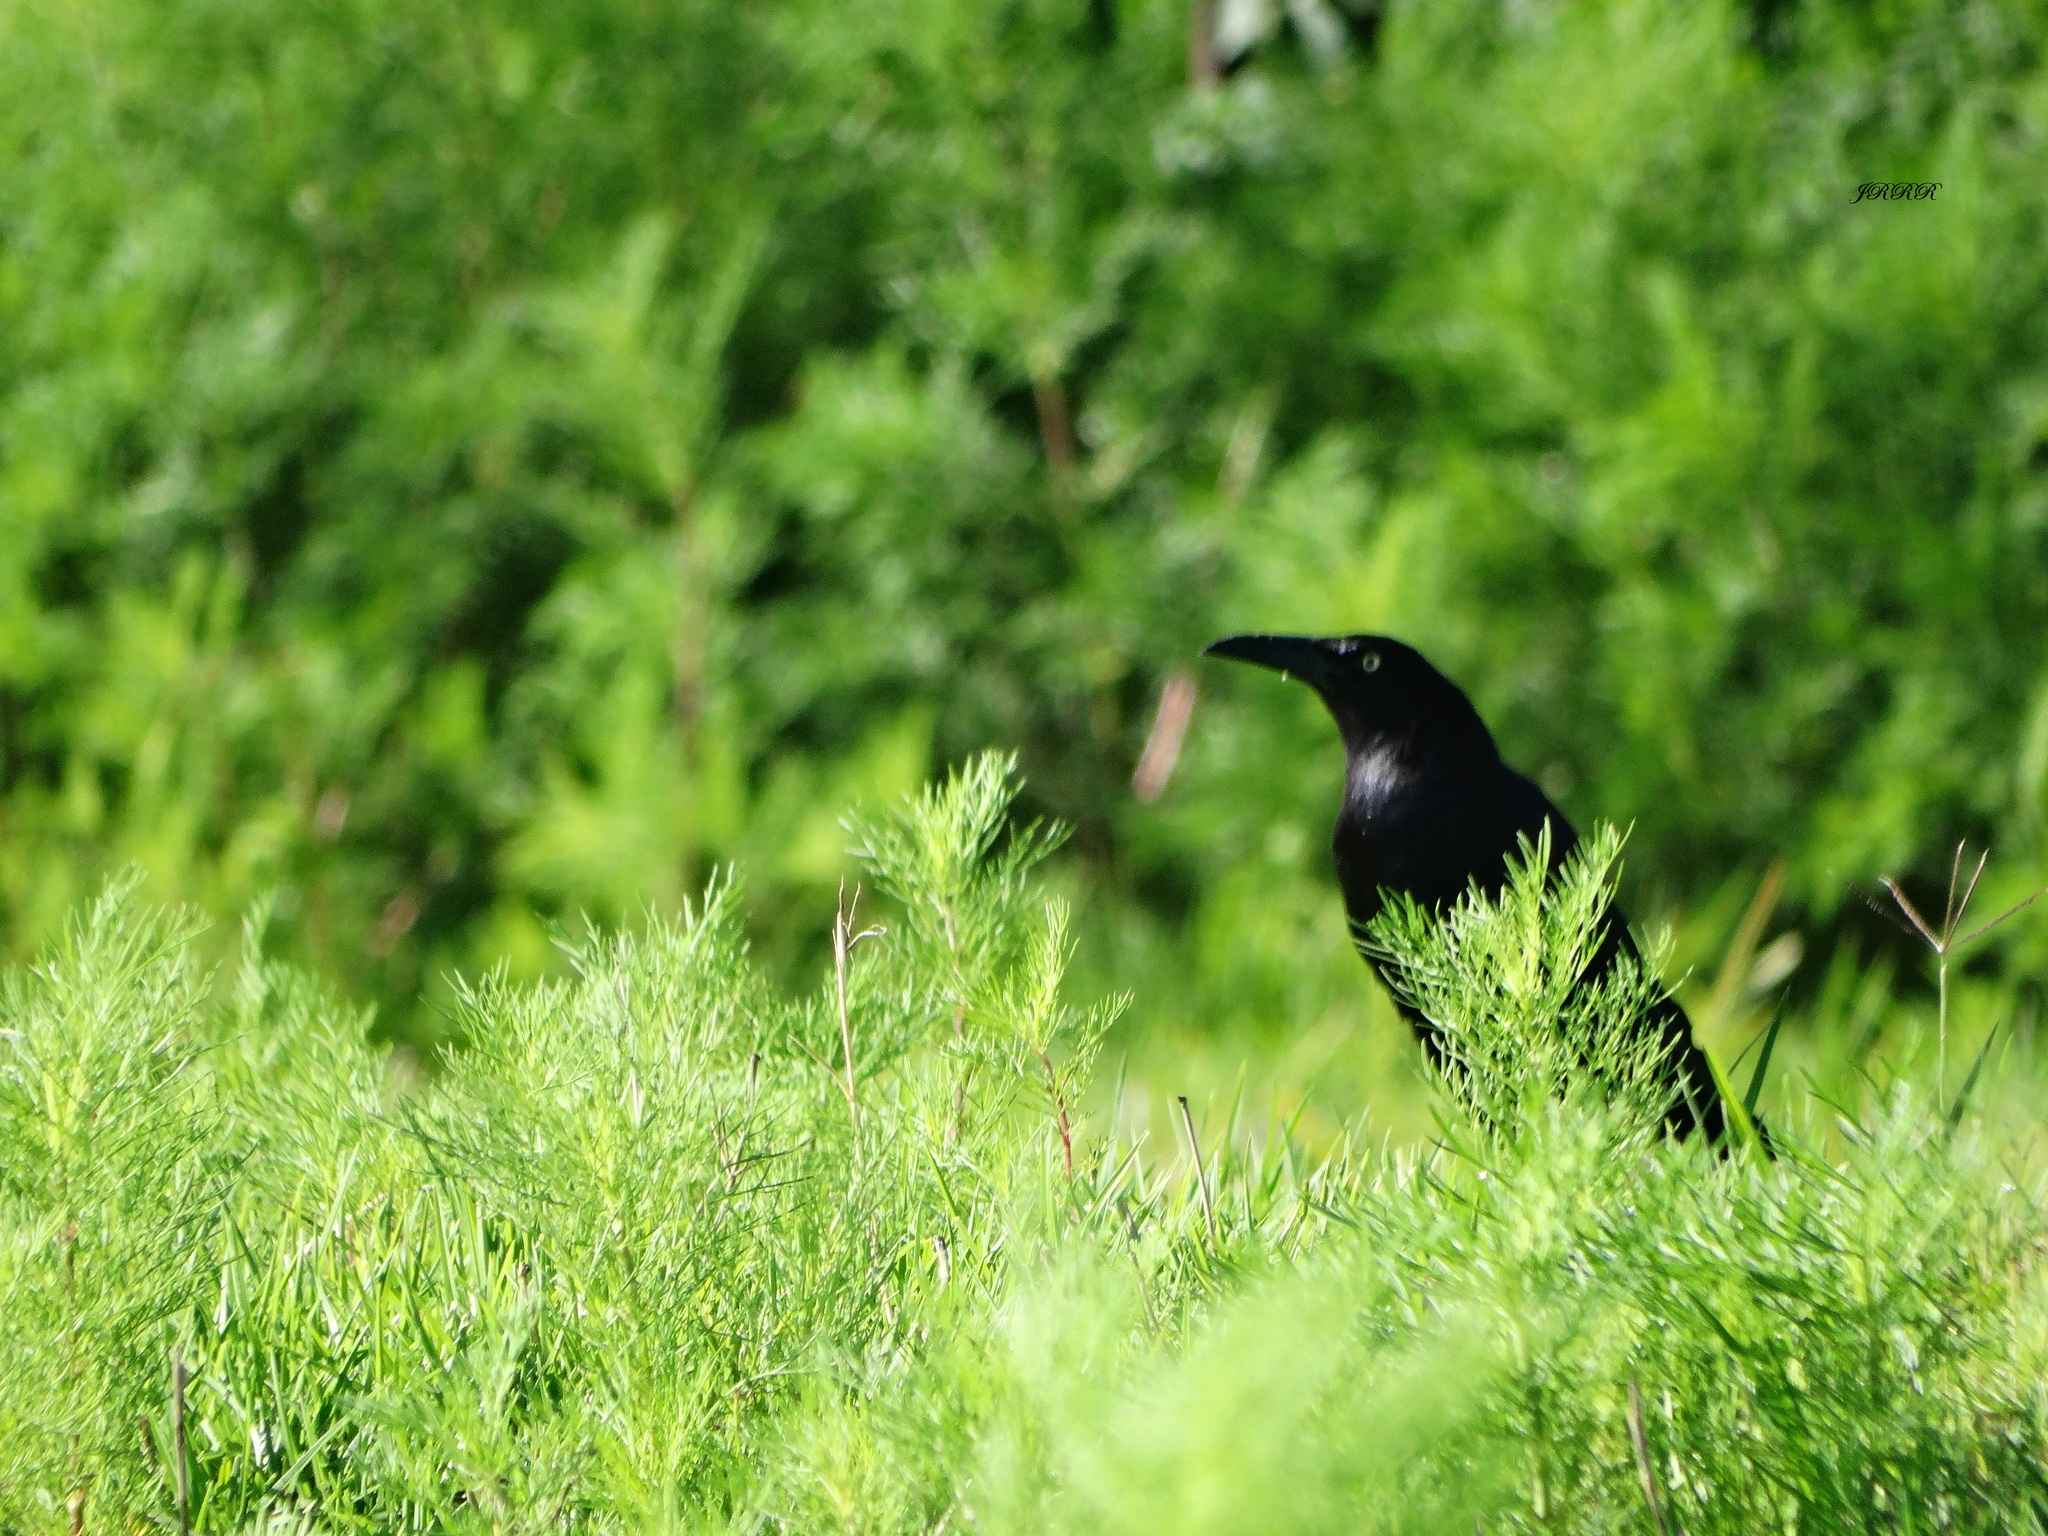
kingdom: Animalia
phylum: Chordata
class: Aves
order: Passeriformes
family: Icteridae
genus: Quiscalus
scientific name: Quiscalus mexicanus
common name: Great-tailed grackle
